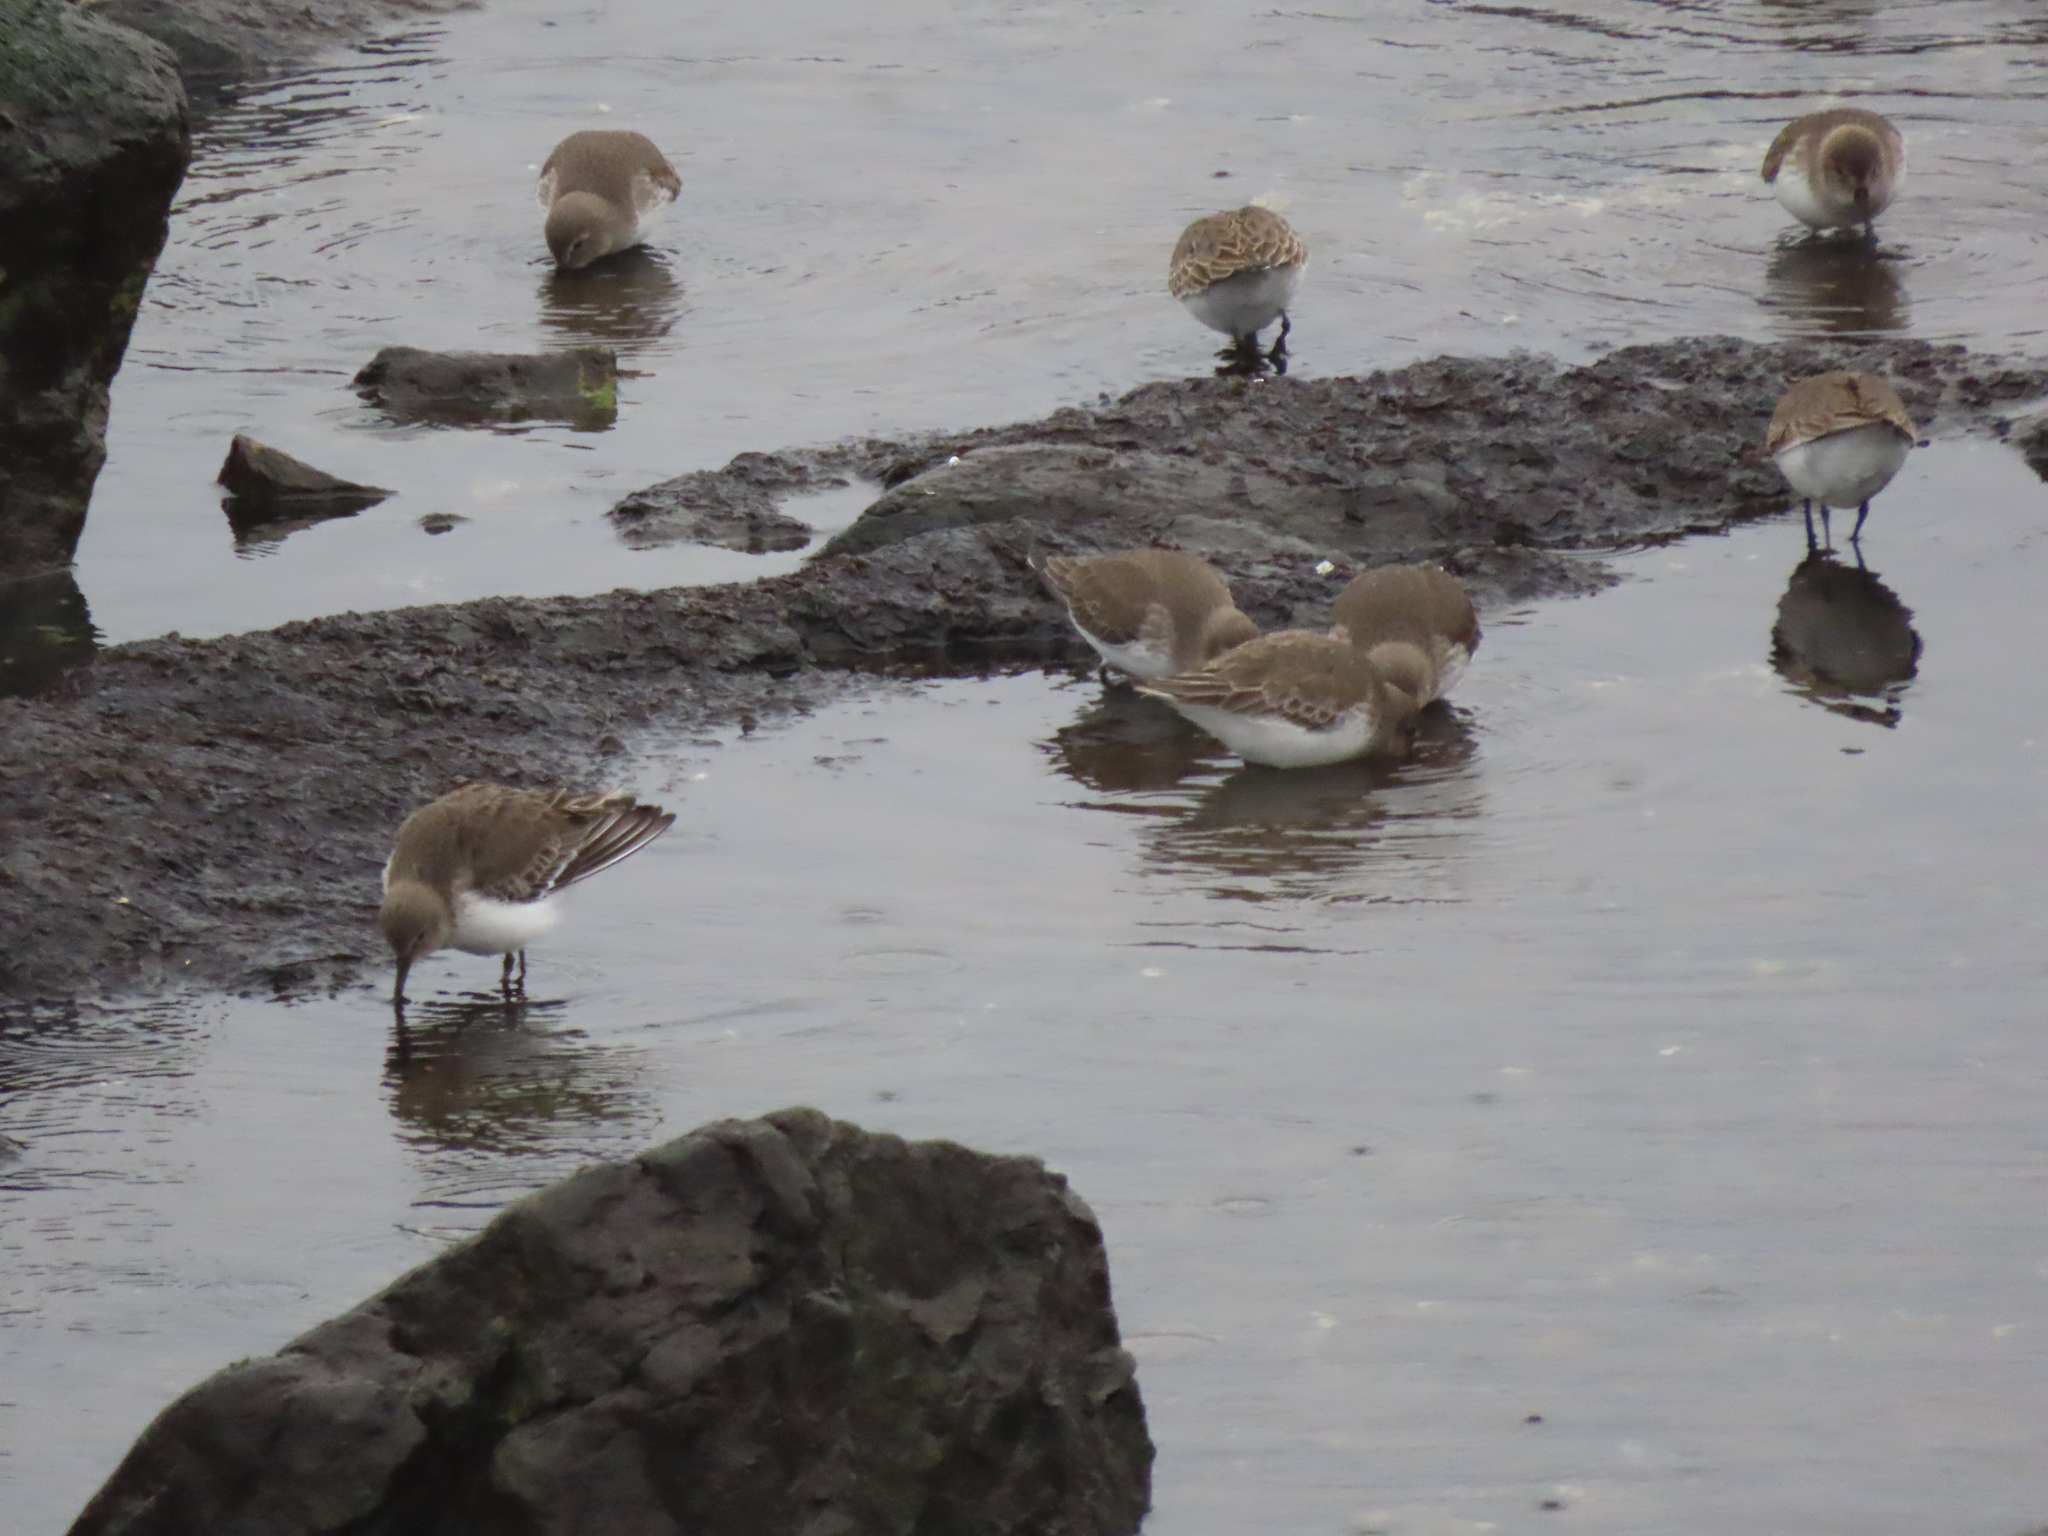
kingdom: Animalia
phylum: Chordata
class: Aves
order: Charadriiformes
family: Scolopacidae
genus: Calidris
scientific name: Calidris alpina
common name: Dunlin
